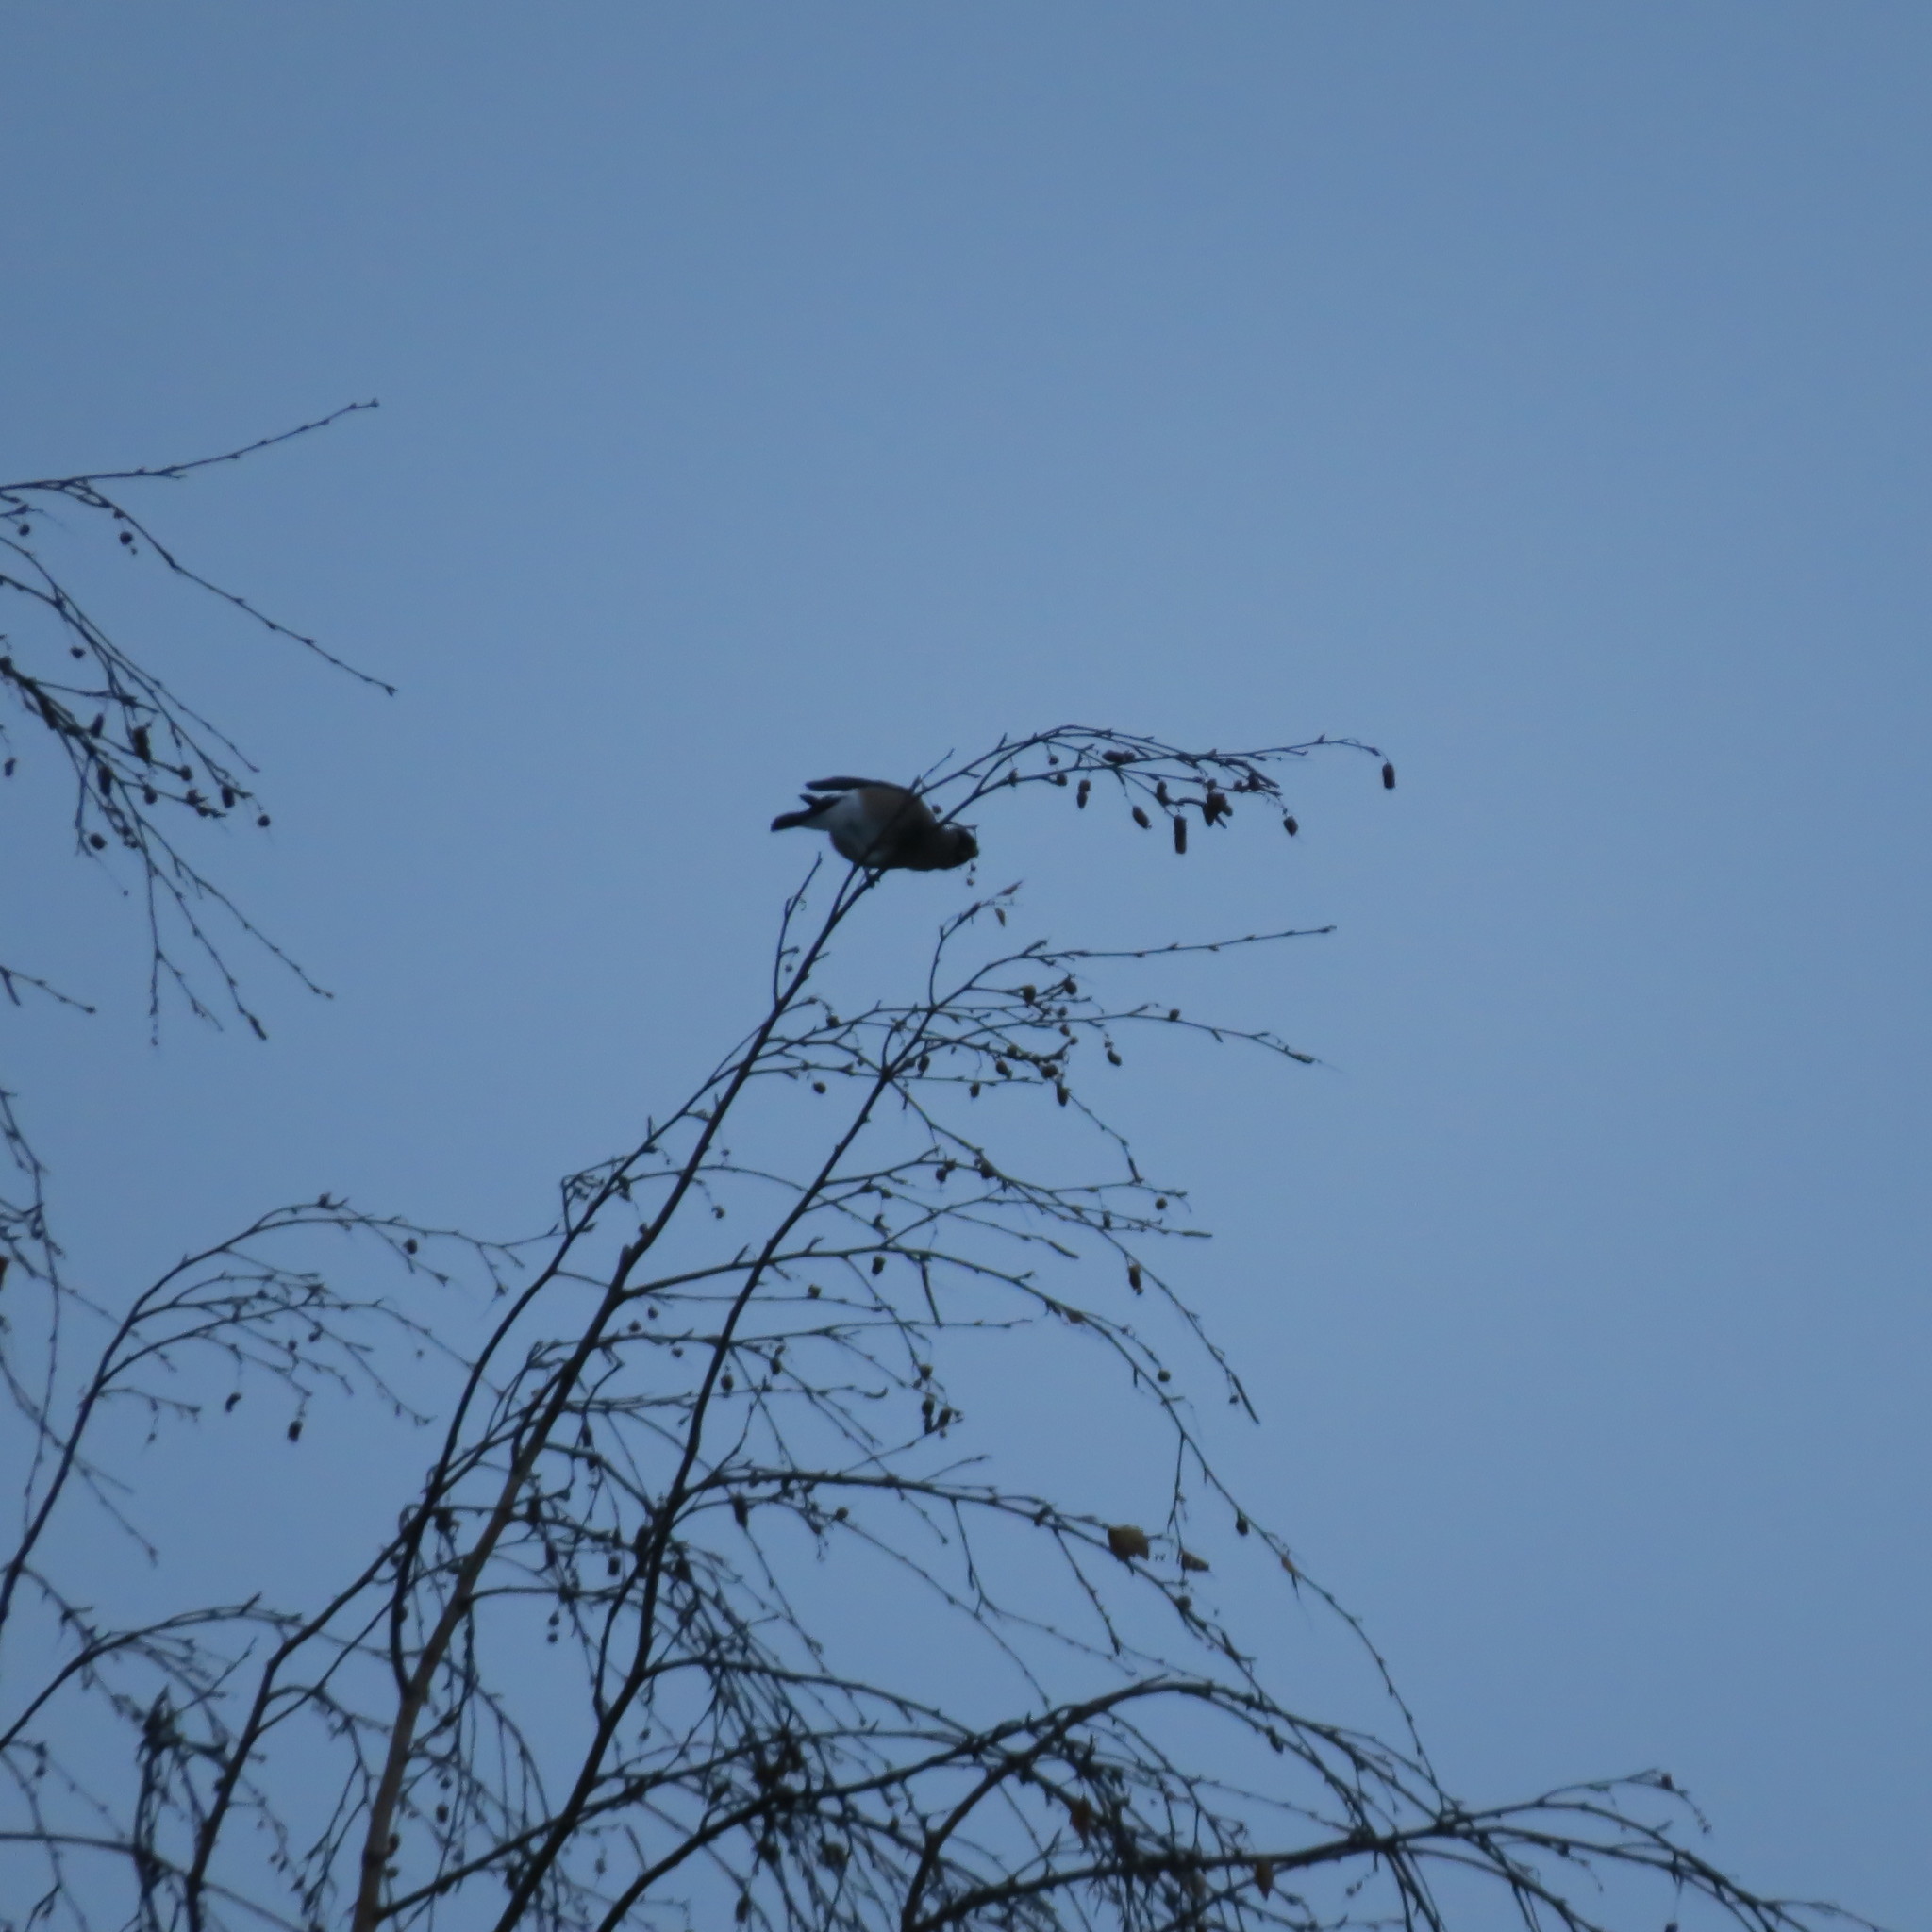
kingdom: Animalia
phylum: Chordata
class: Aves
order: Passeriformes
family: Fringillidae
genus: Pyrrhula
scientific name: Pyrrhula pyrrhula
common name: Eurasian bullfinch
